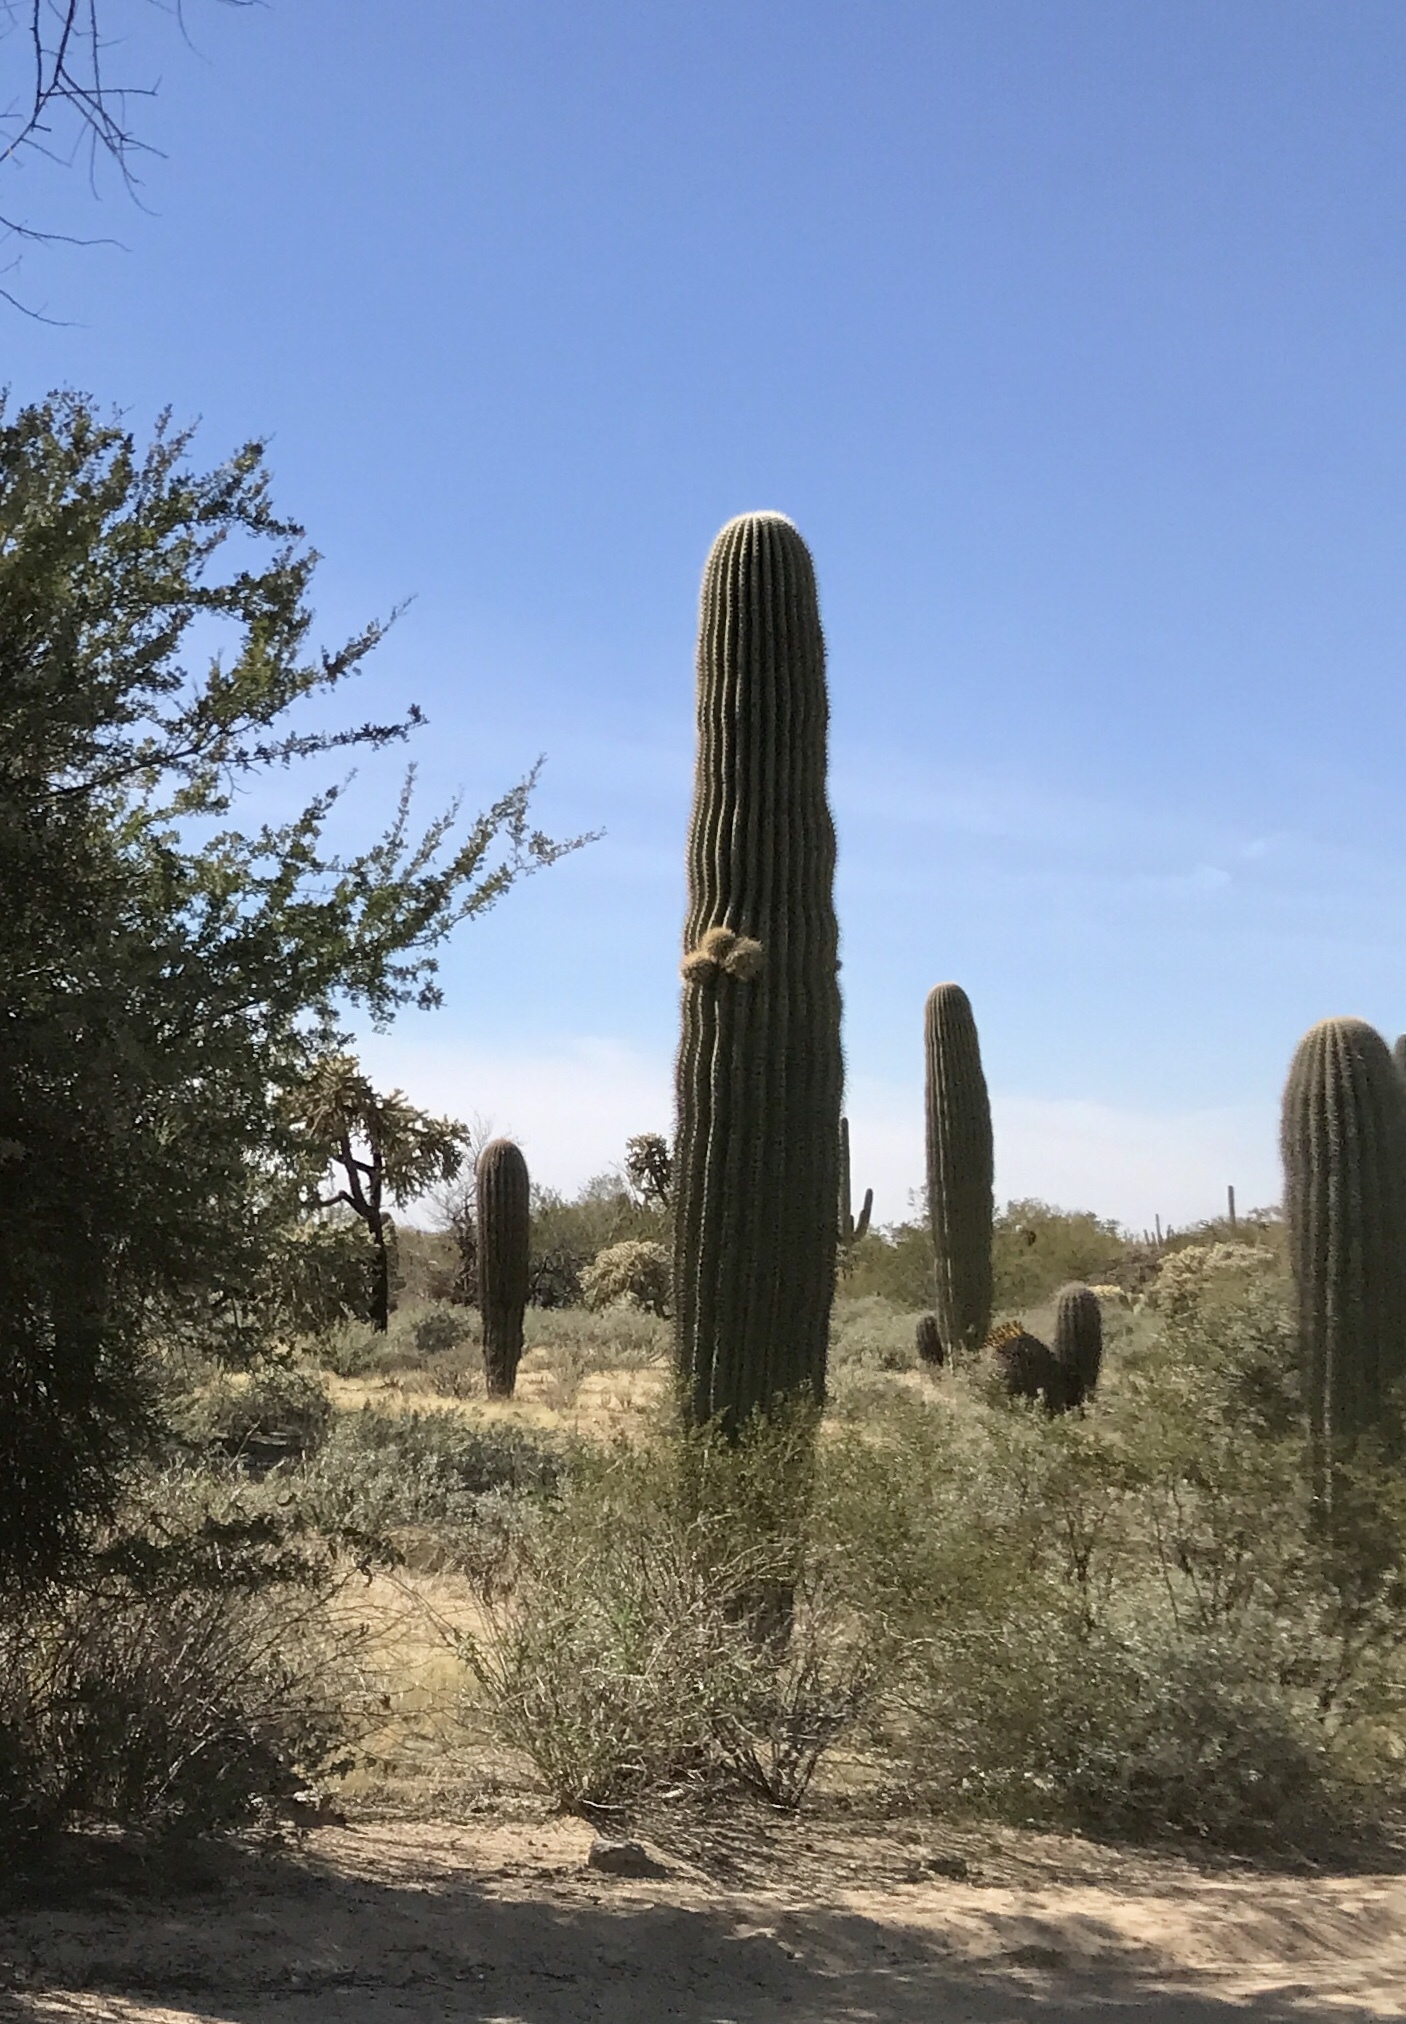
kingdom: Plantae
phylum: Tracheophyta
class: Magnoliopsida
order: Caryophyllales
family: Cactaceae
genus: Carnegiea
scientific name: Carnegiea gigantea
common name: Saguaro
